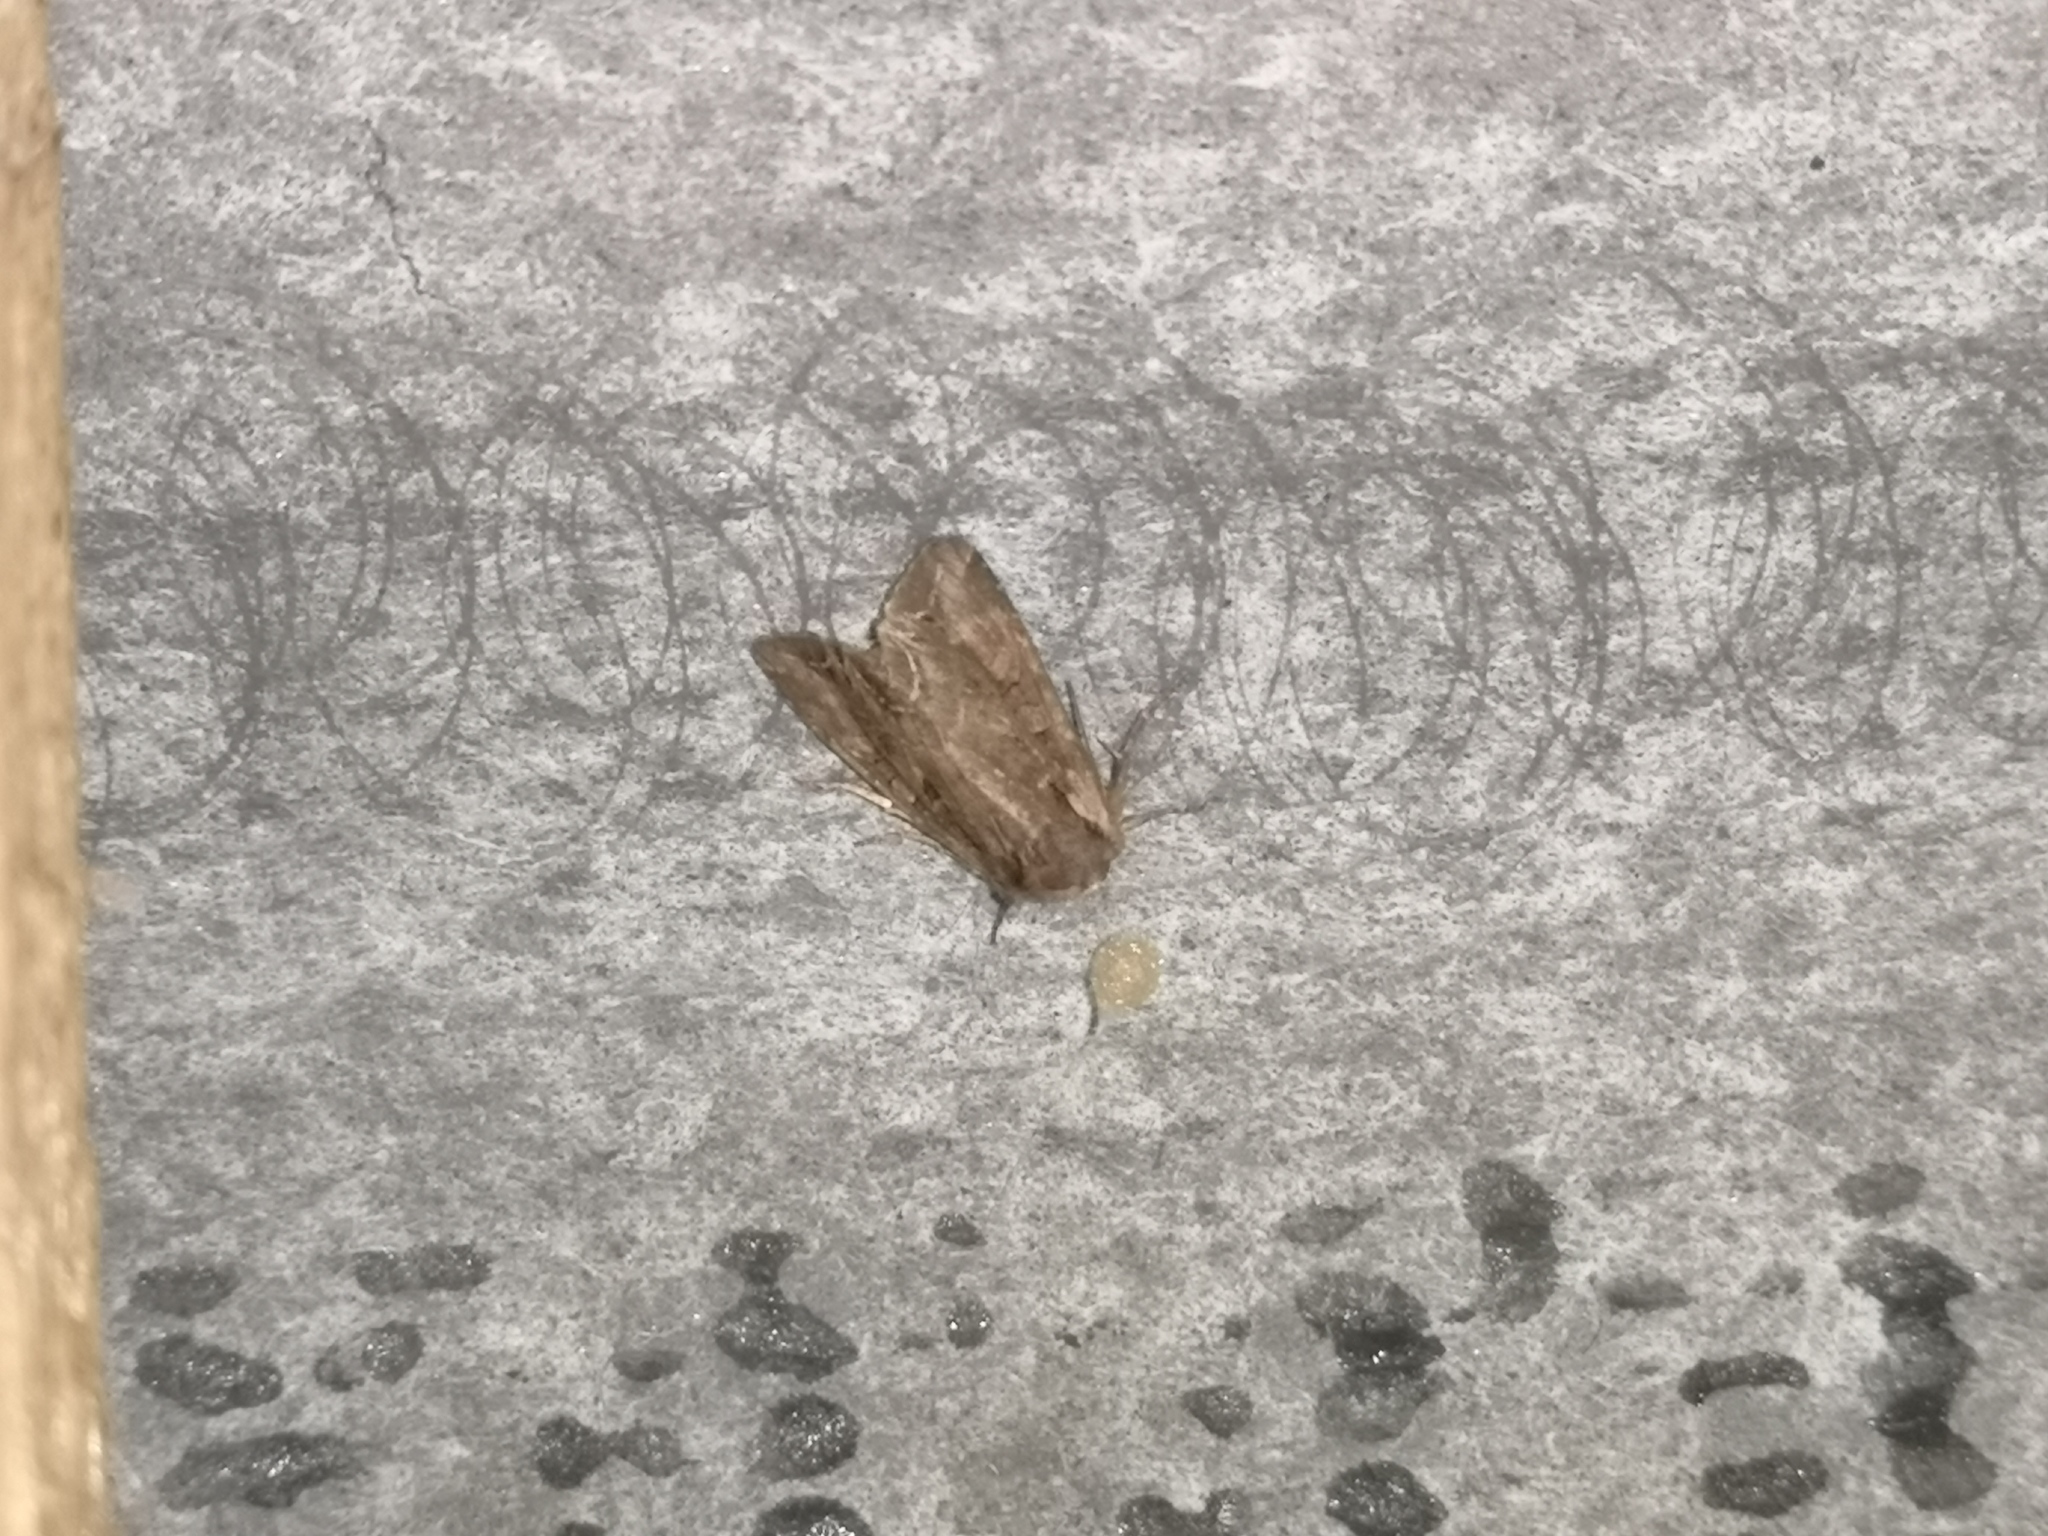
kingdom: Animalia
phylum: Arthropoda
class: Insecta
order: Lepidoptera
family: Noctuidae
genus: Lacanobia
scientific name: Lacanobia suasa
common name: Dog's tooth
